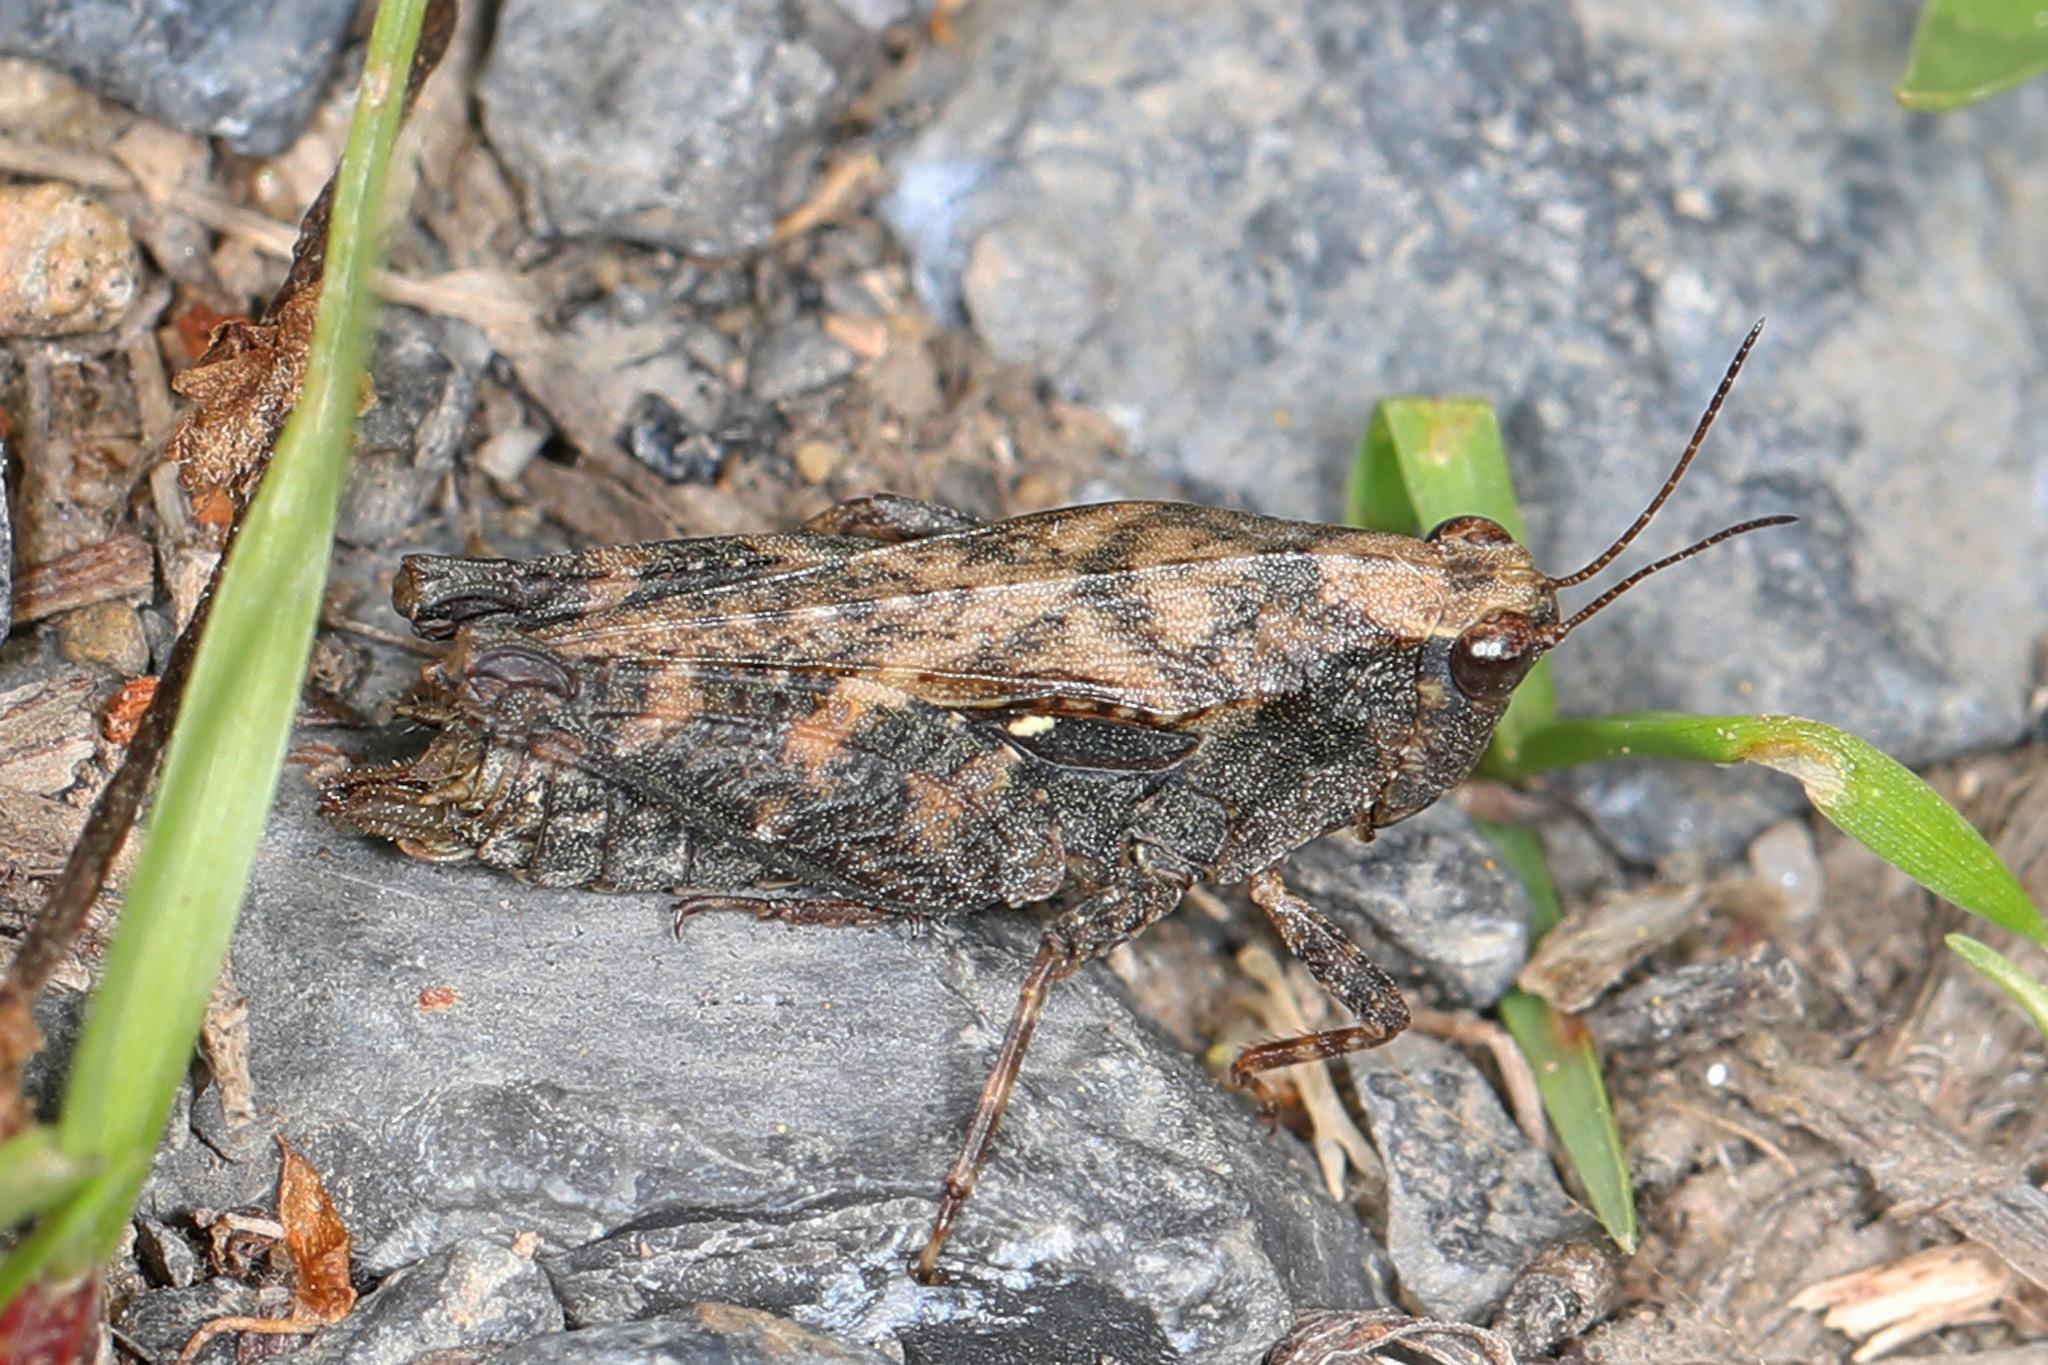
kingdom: Animalia
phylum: Arthropoda
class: Insecta
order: Orthoptera
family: Tetrigidae
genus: Tettigidea
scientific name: Tettigidea laterale
